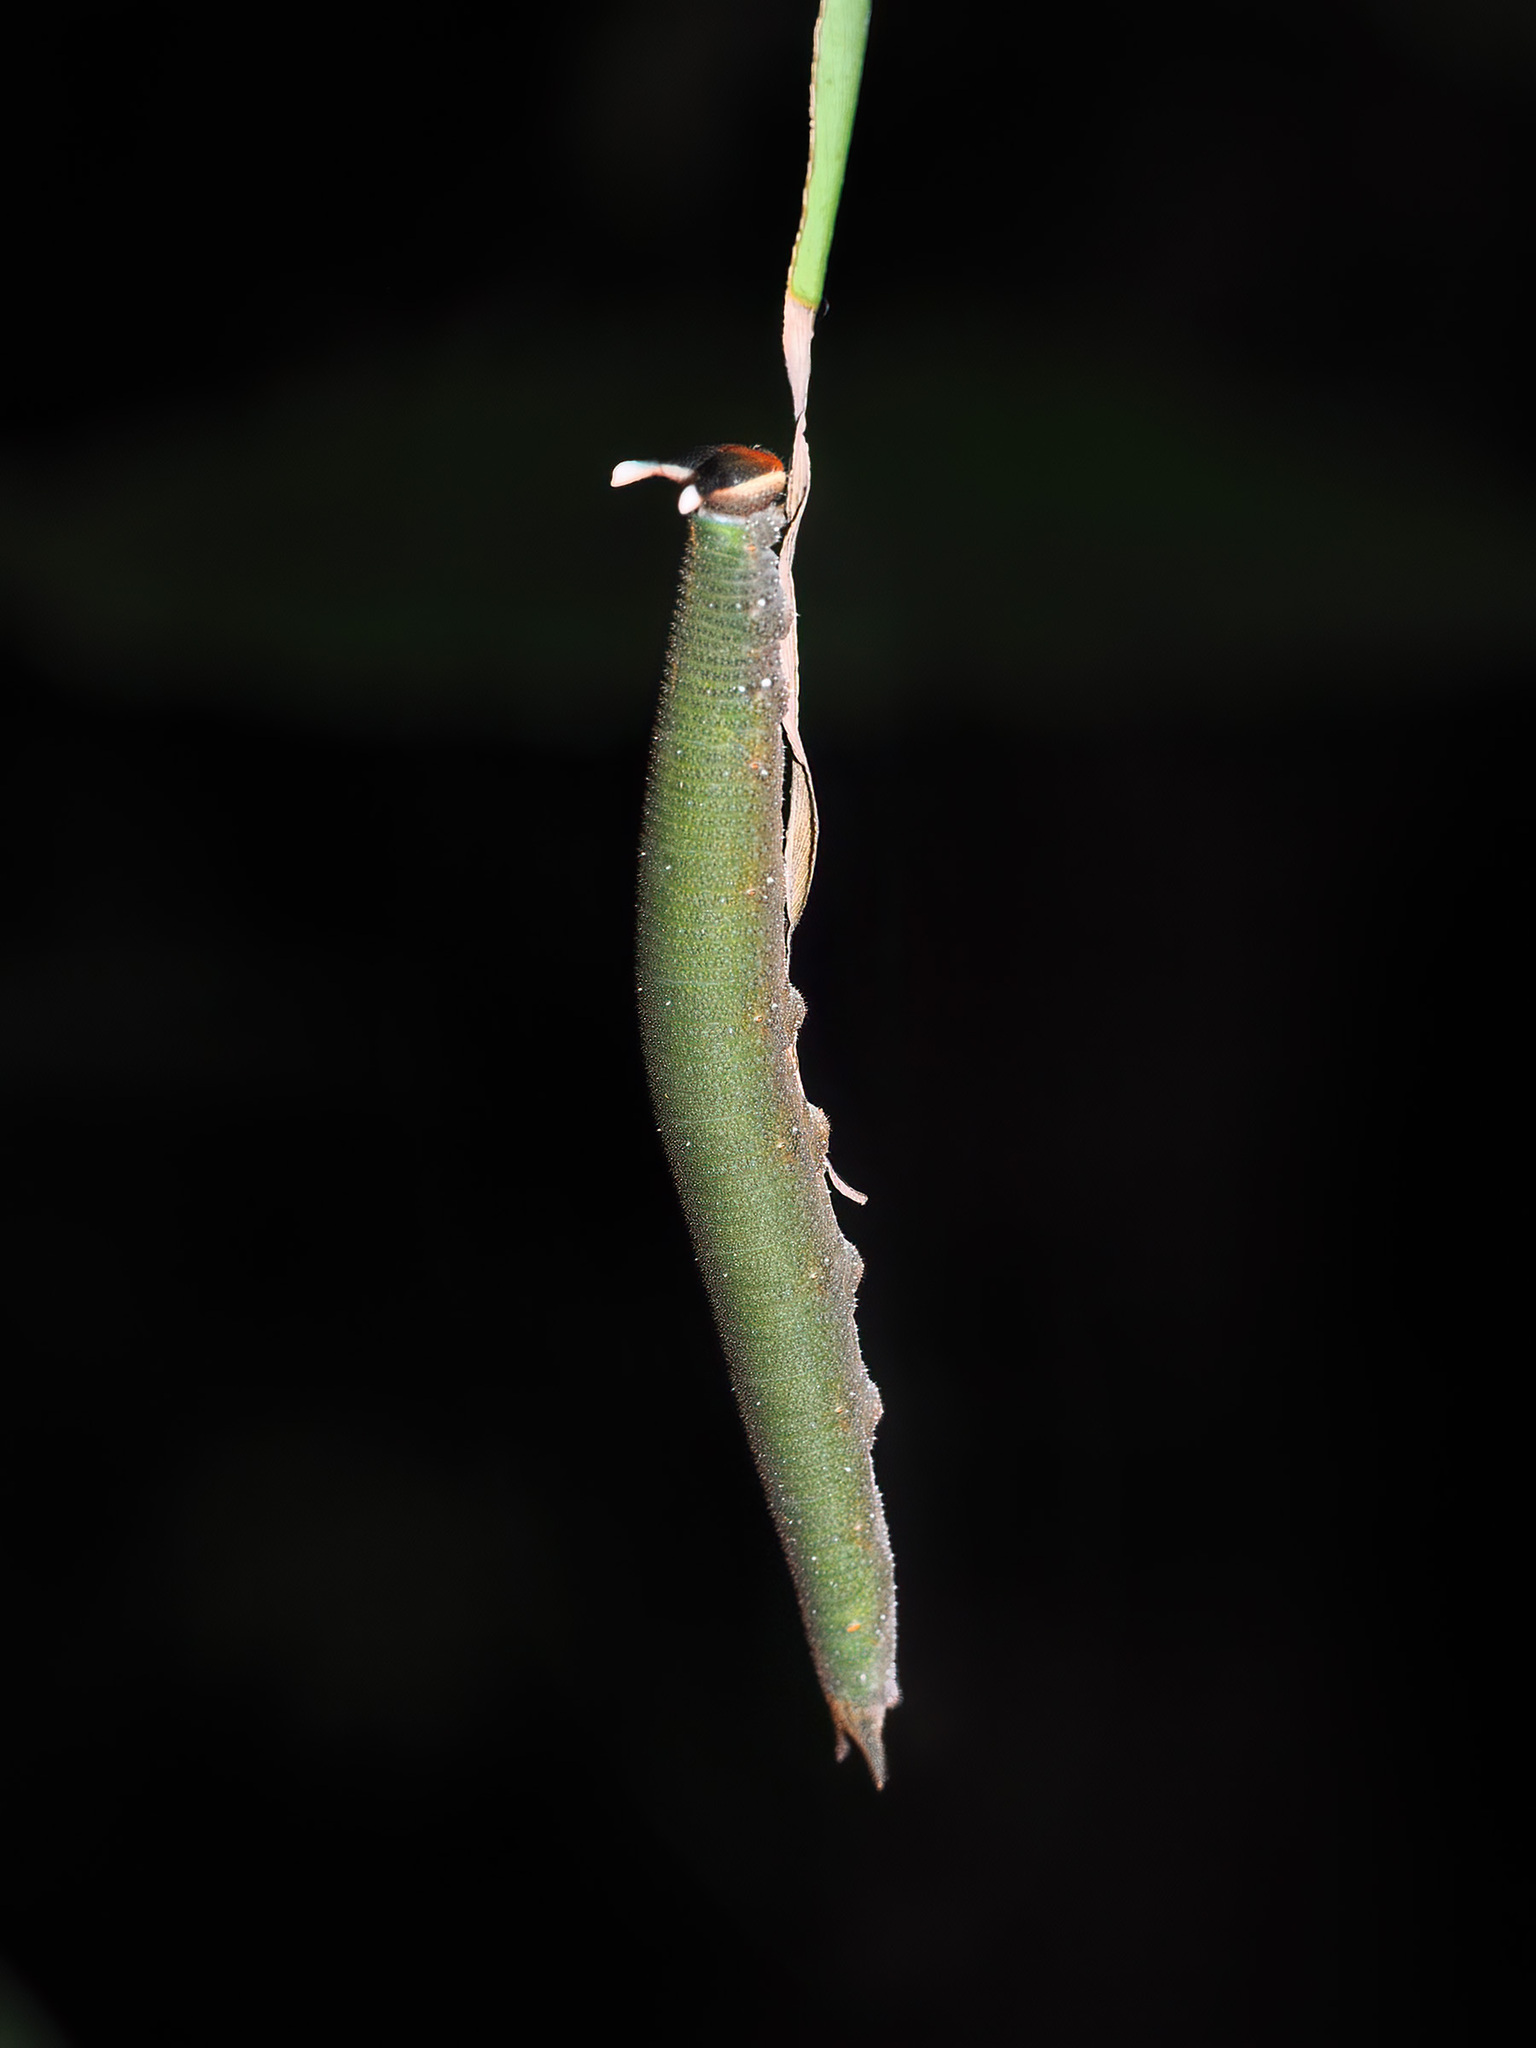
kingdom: Animalia
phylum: Arthropoda
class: Insecta
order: Lepidoptera
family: Nymphalidae
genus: Xanthotaenia
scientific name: Xanthotaenia busiris
